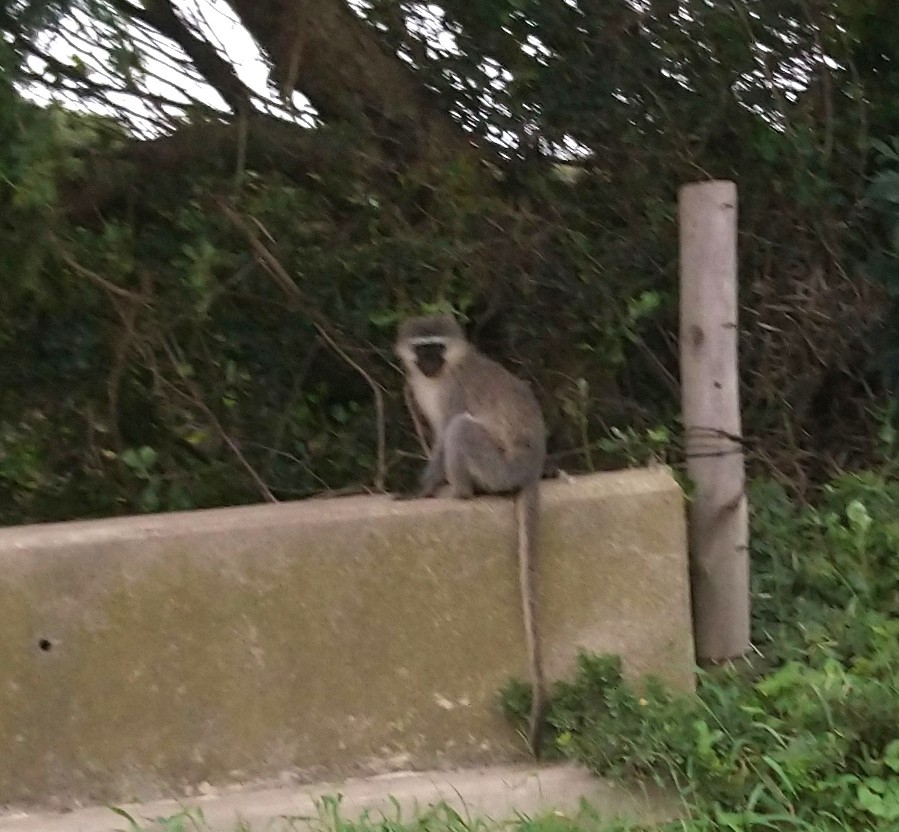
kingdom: Animalia
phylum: Chordata
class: Mammalia
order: Primates
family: Cercopithecidae
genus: Chlorocebus
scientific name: Chlorocebus pygerythrus
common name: Vervet monkey
